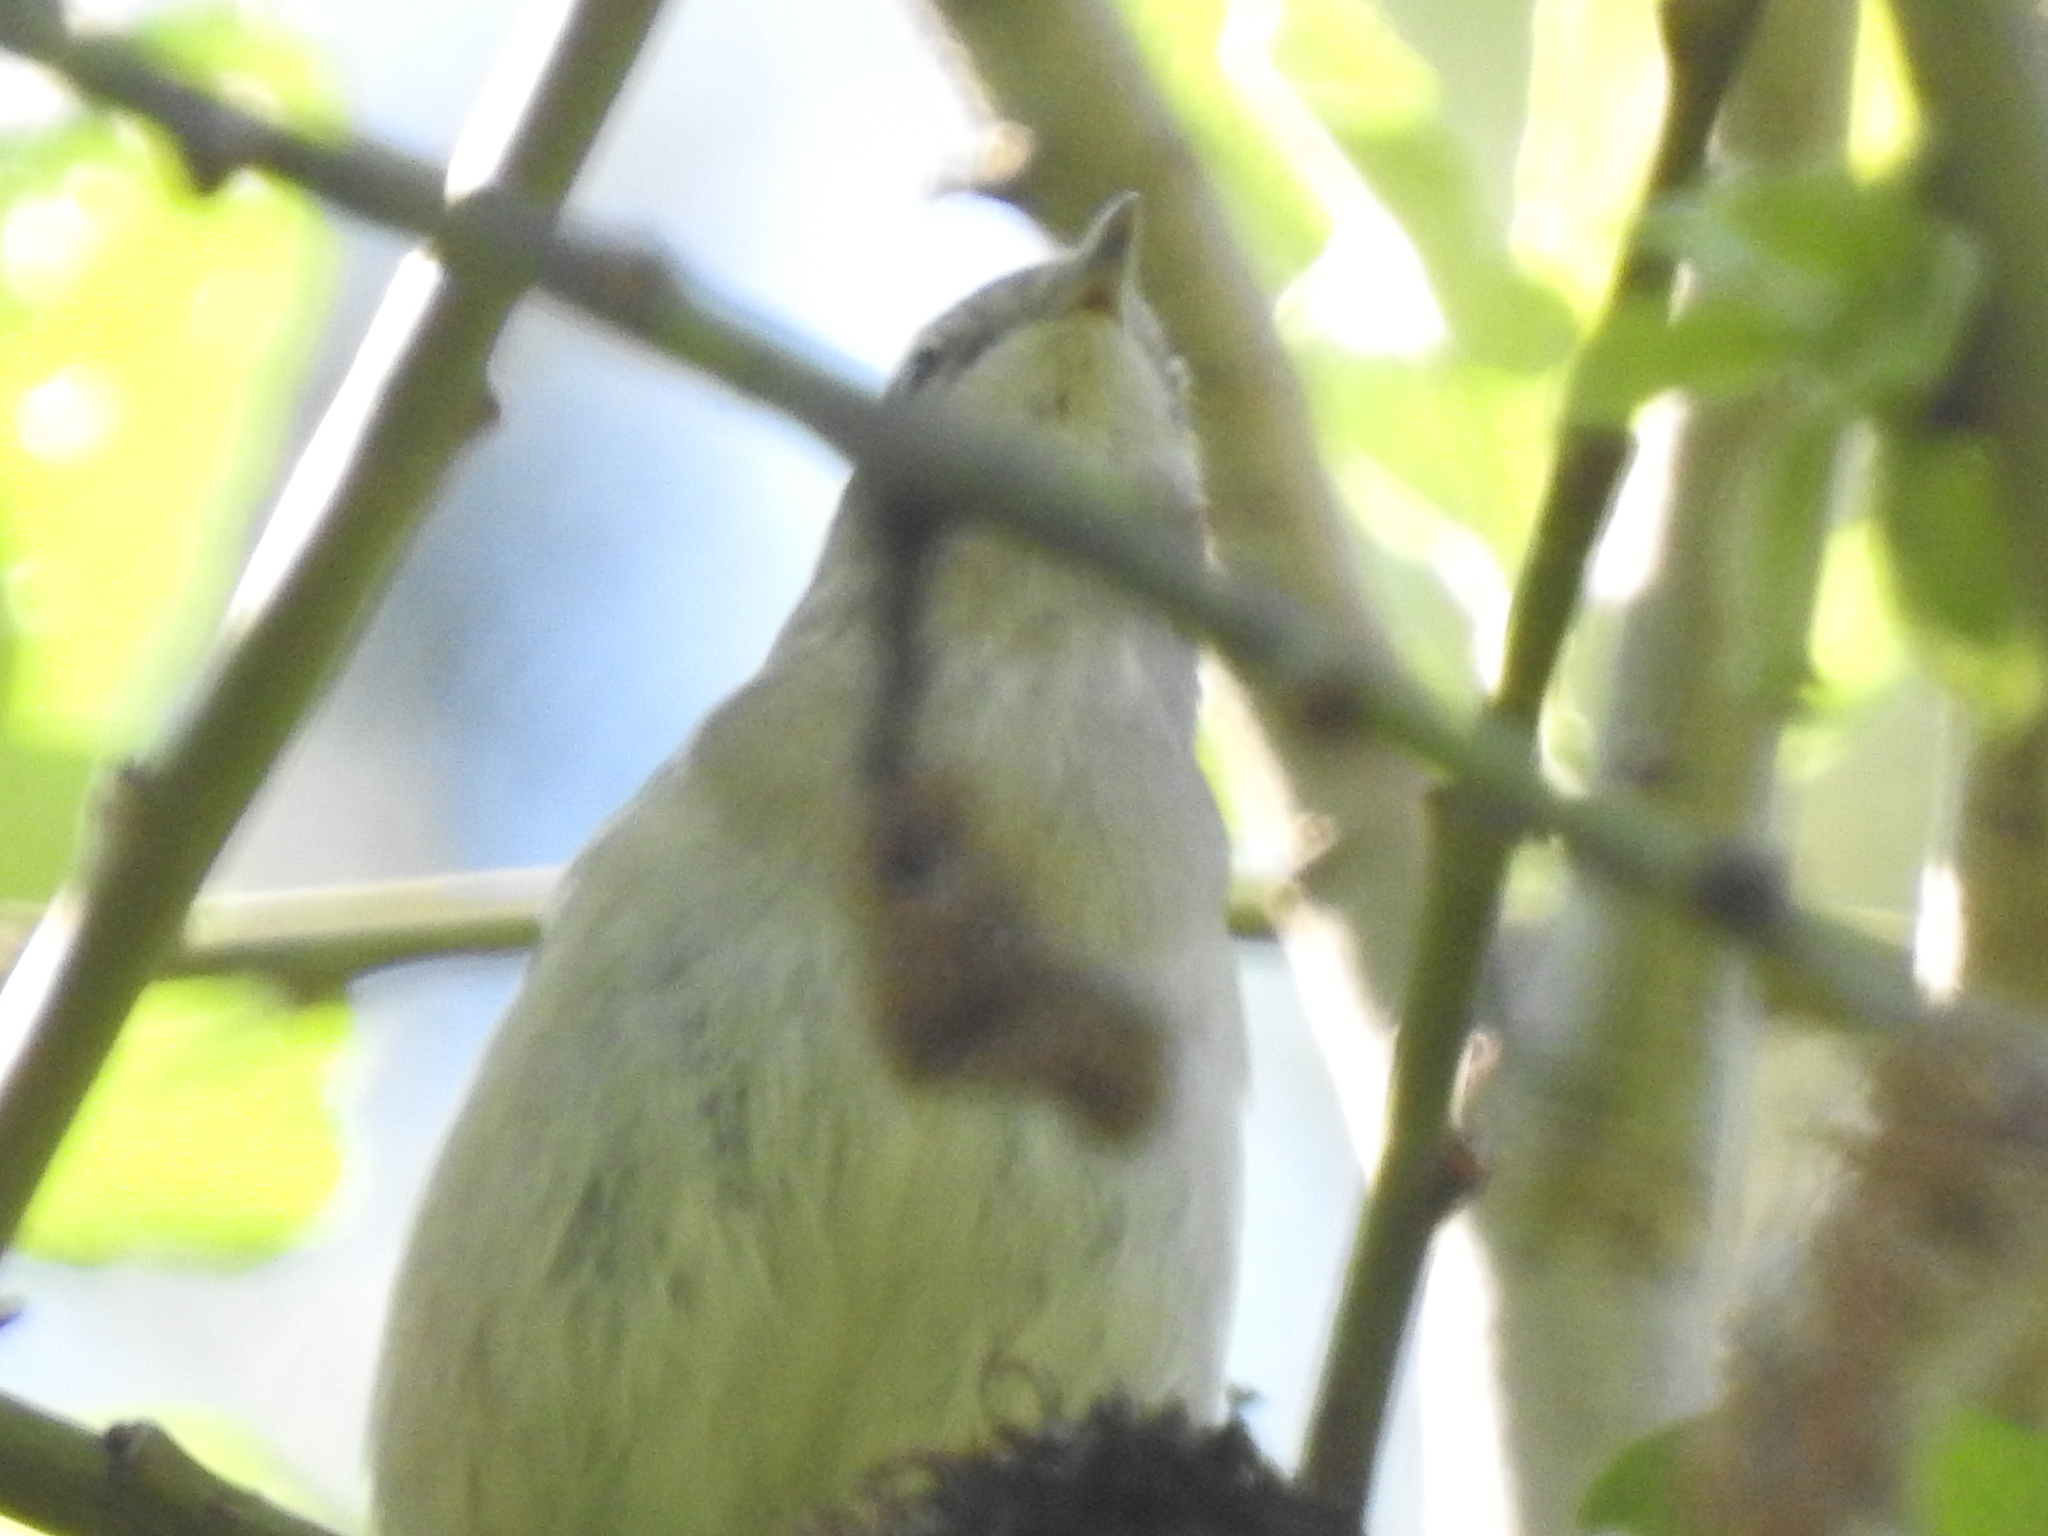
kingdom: Animalia
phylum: Chordata
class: Aves
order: Passeriformes
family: Sylviidae
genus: Sylvia
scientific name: Sylvia borin
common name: Garden warbler
